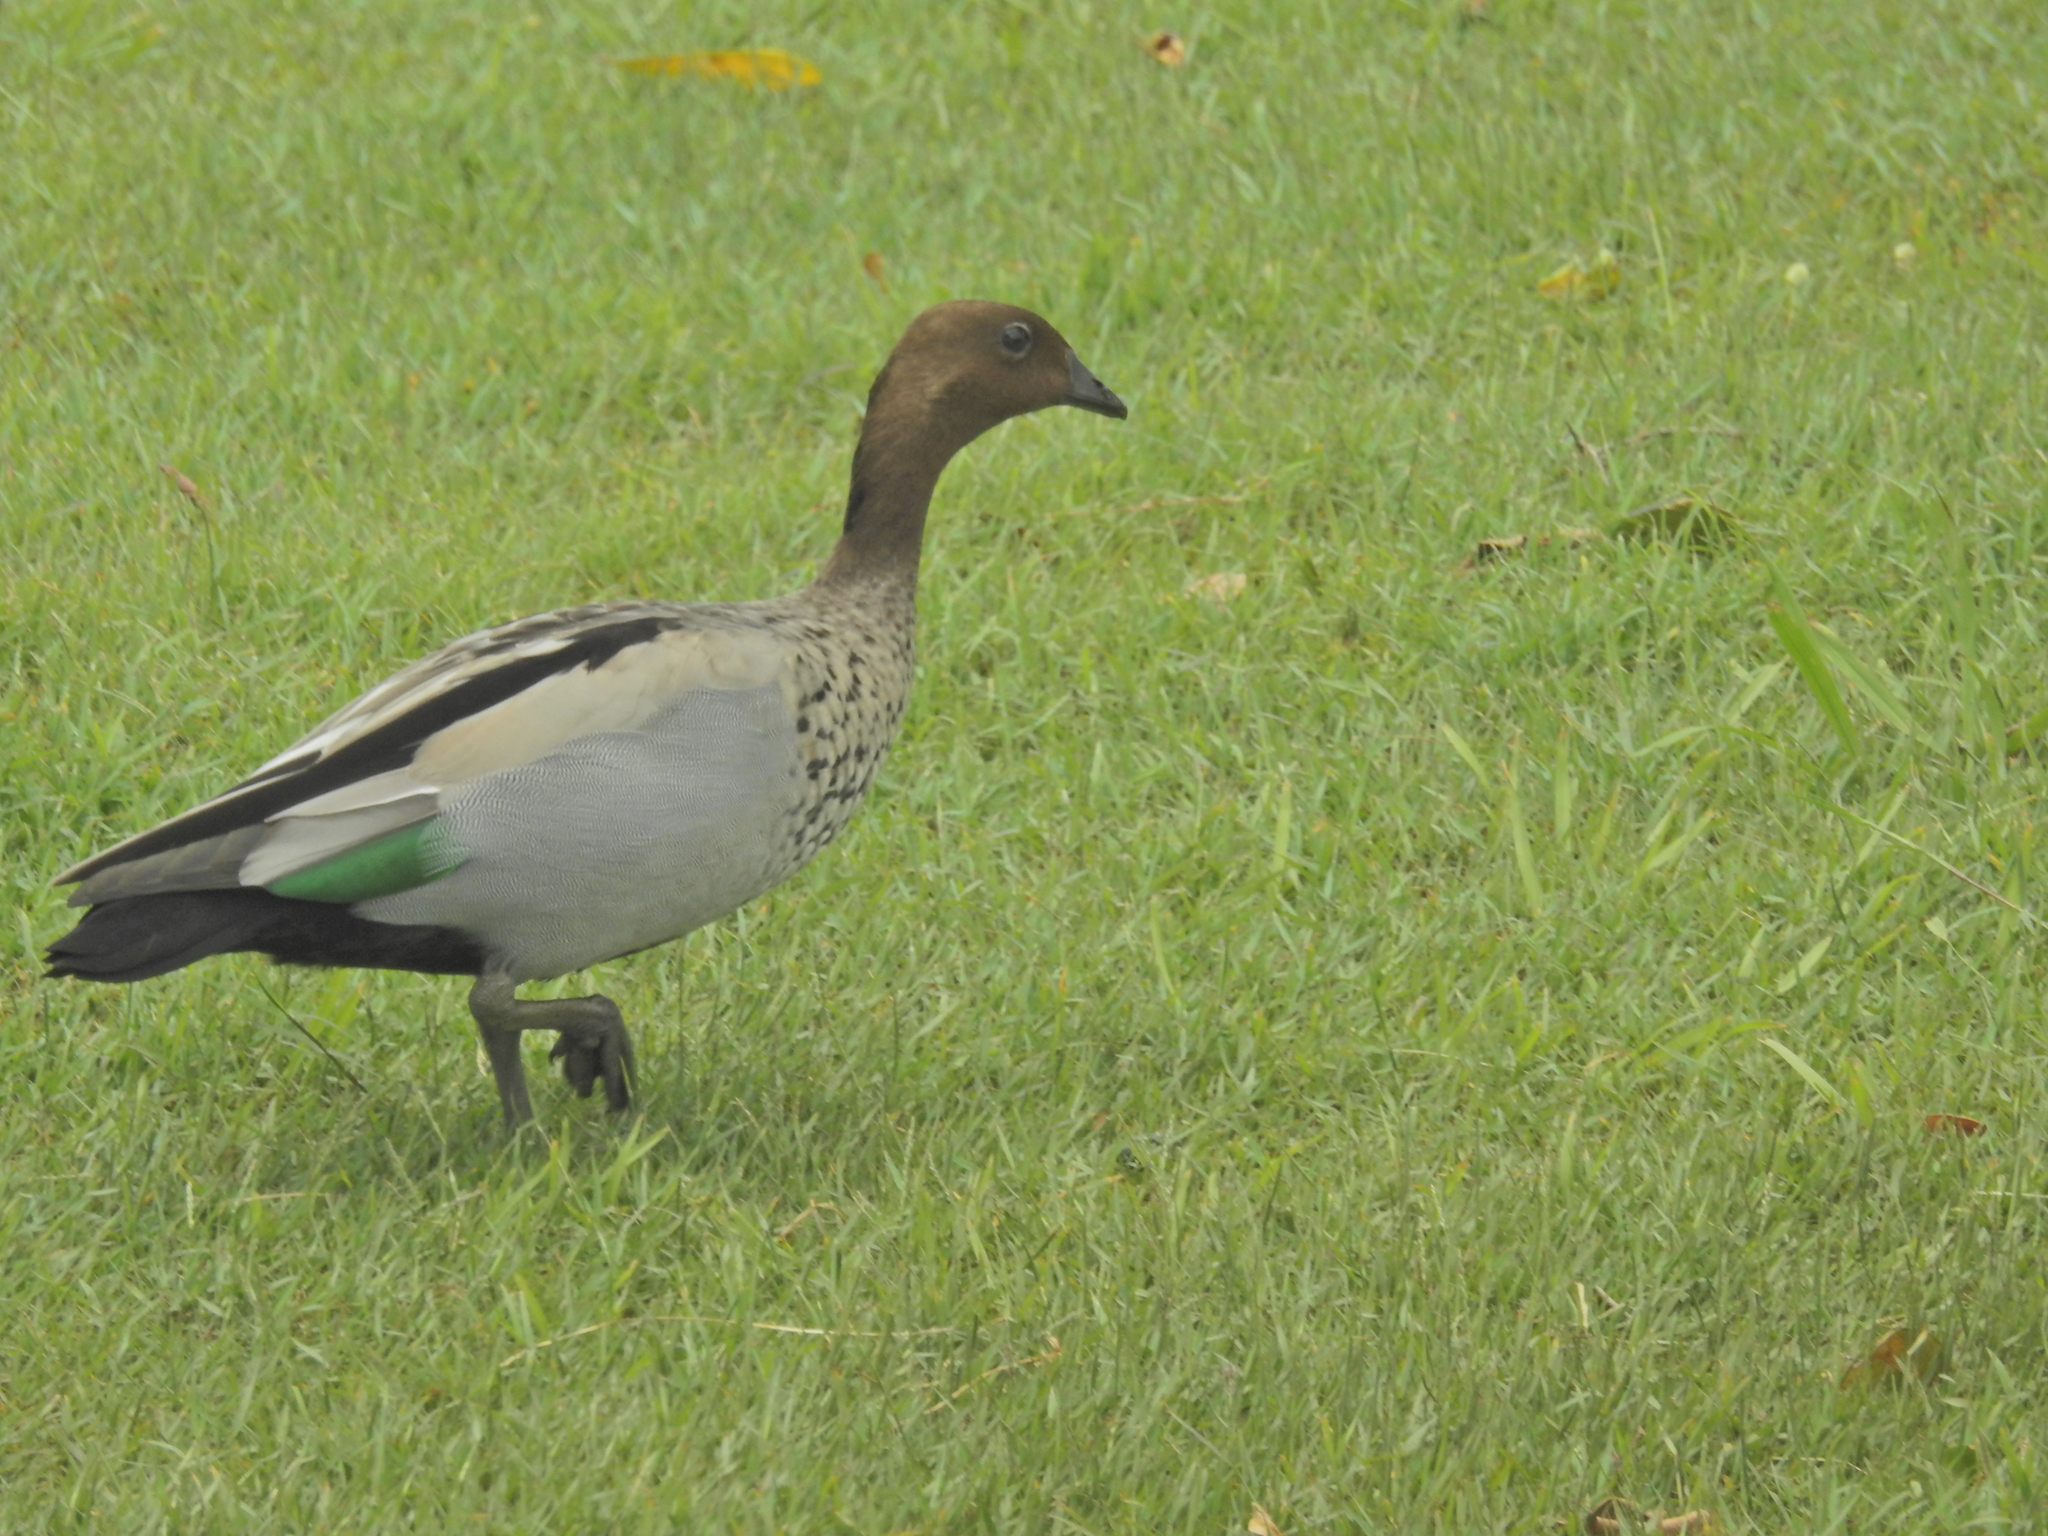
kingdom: Animalia
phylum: Chordata
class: Aves
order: Anseriformes
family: Anatidae
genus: Chenonetta
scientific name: Chenonetta jubata
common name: Maned duck
